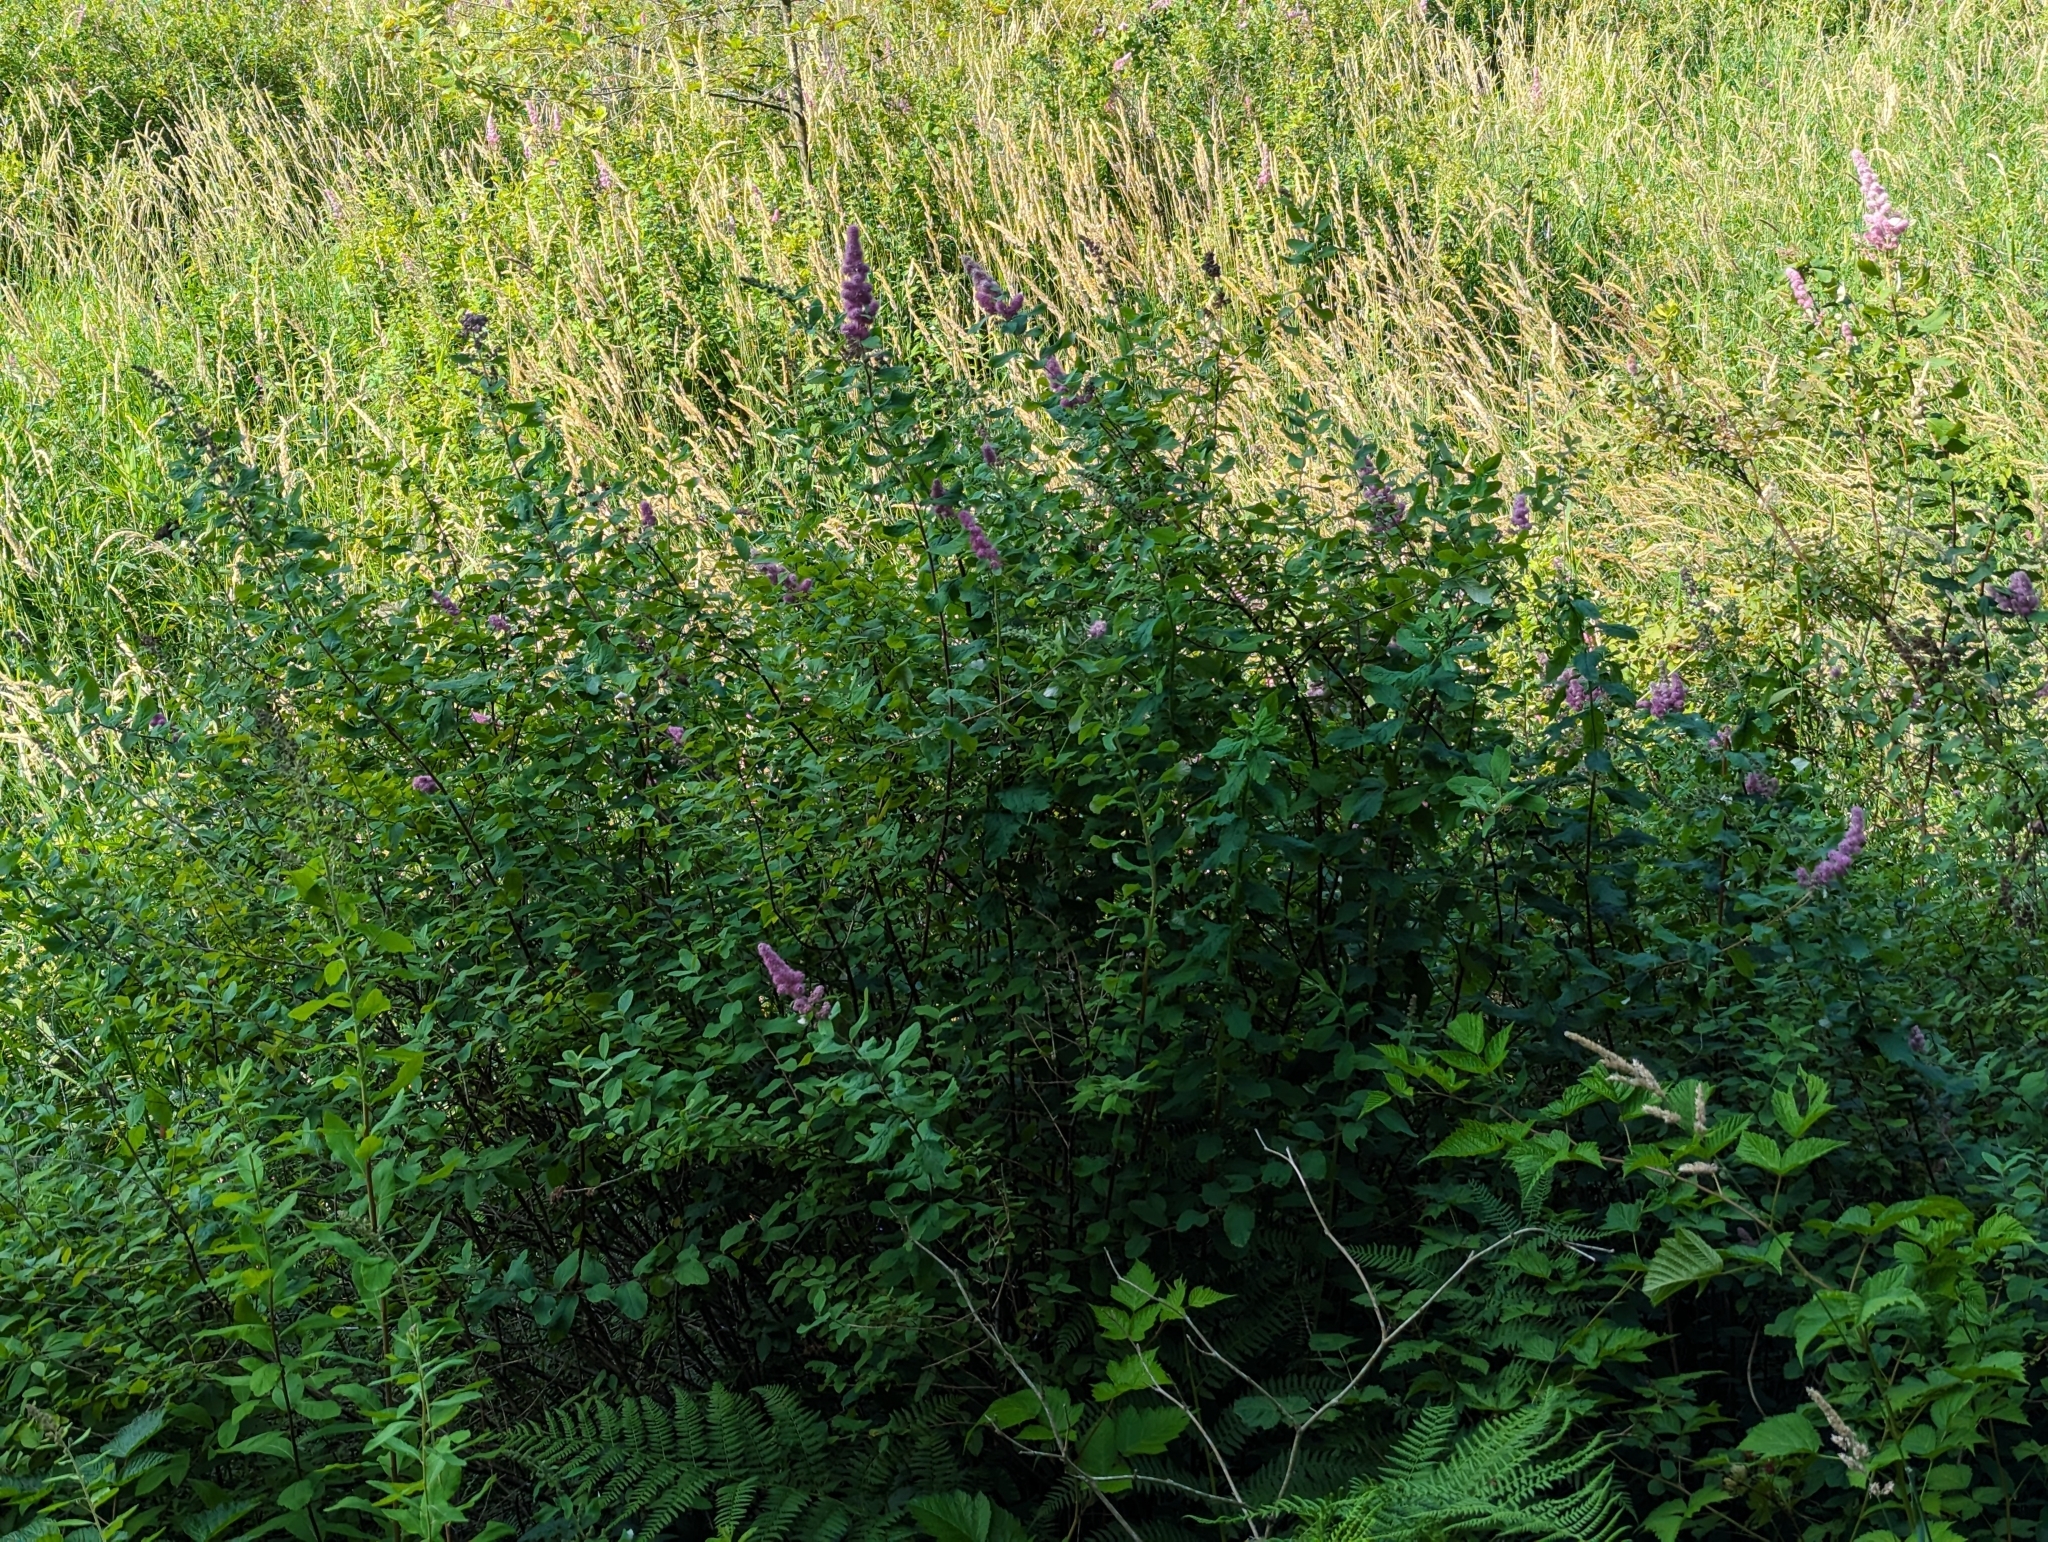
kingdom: Plantae
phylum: Tracheophyta
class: Magnoliopsida
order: Rosales
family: Rosaceae
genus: Spiraea
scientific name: Spiraea douglasii
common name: Steeplebush
